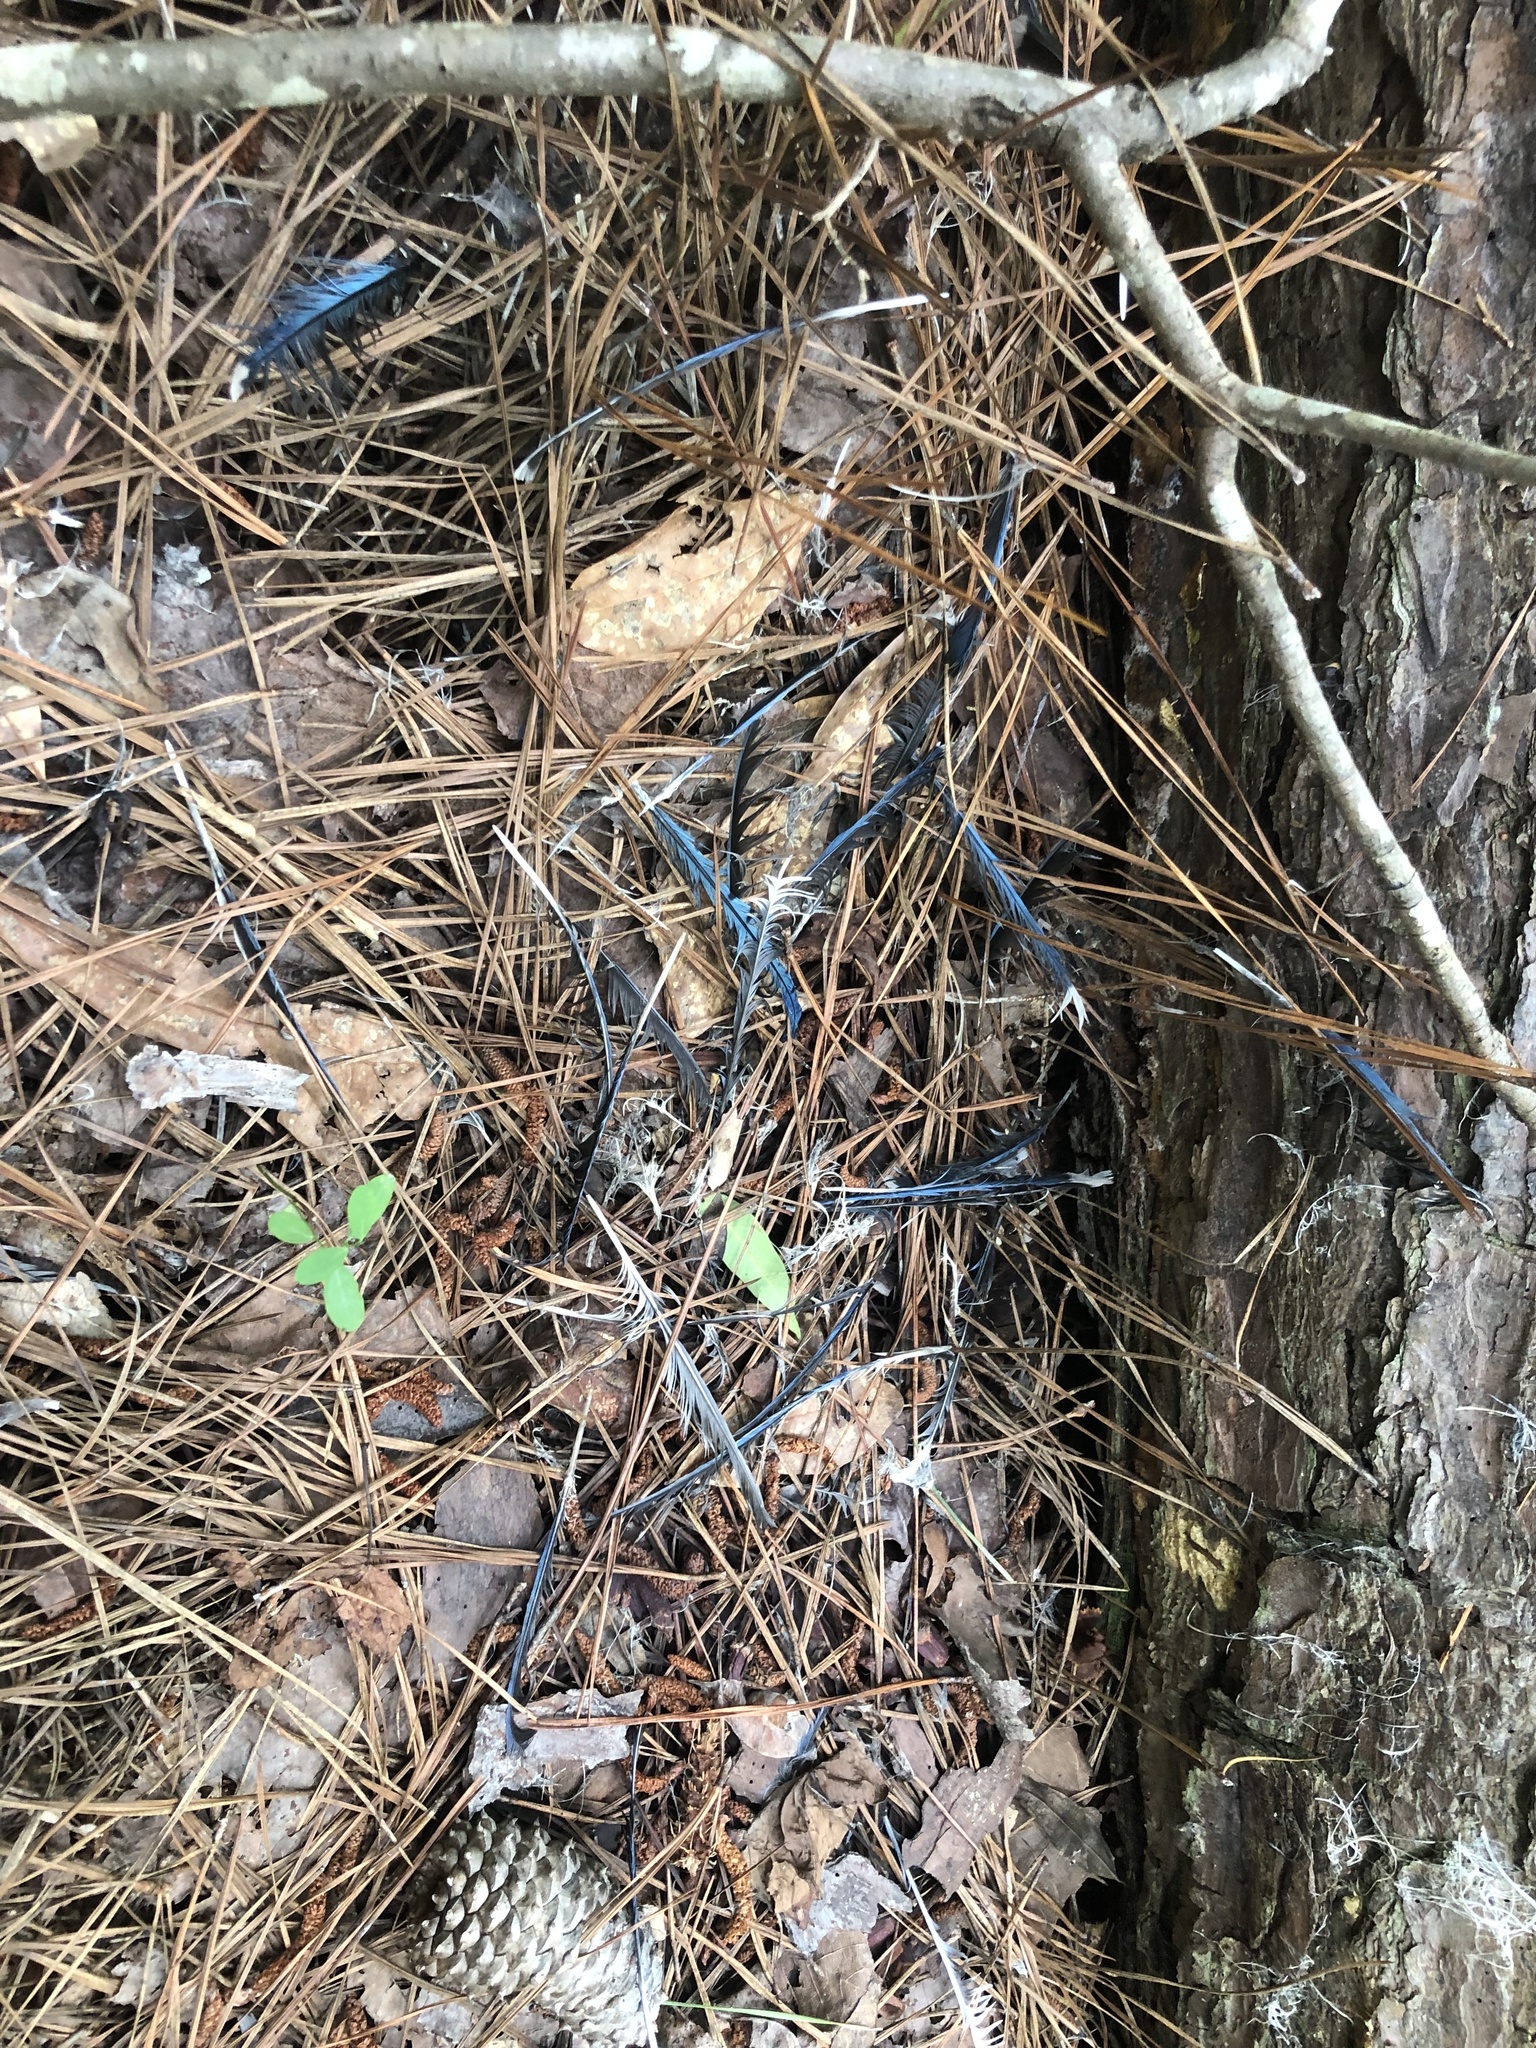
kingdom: Animalia
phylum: Chordata
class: Aves
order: Passeriformes
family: Corvidae
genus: Cyanocitta
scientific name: Cyanocitta cristata
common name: Blue jay
